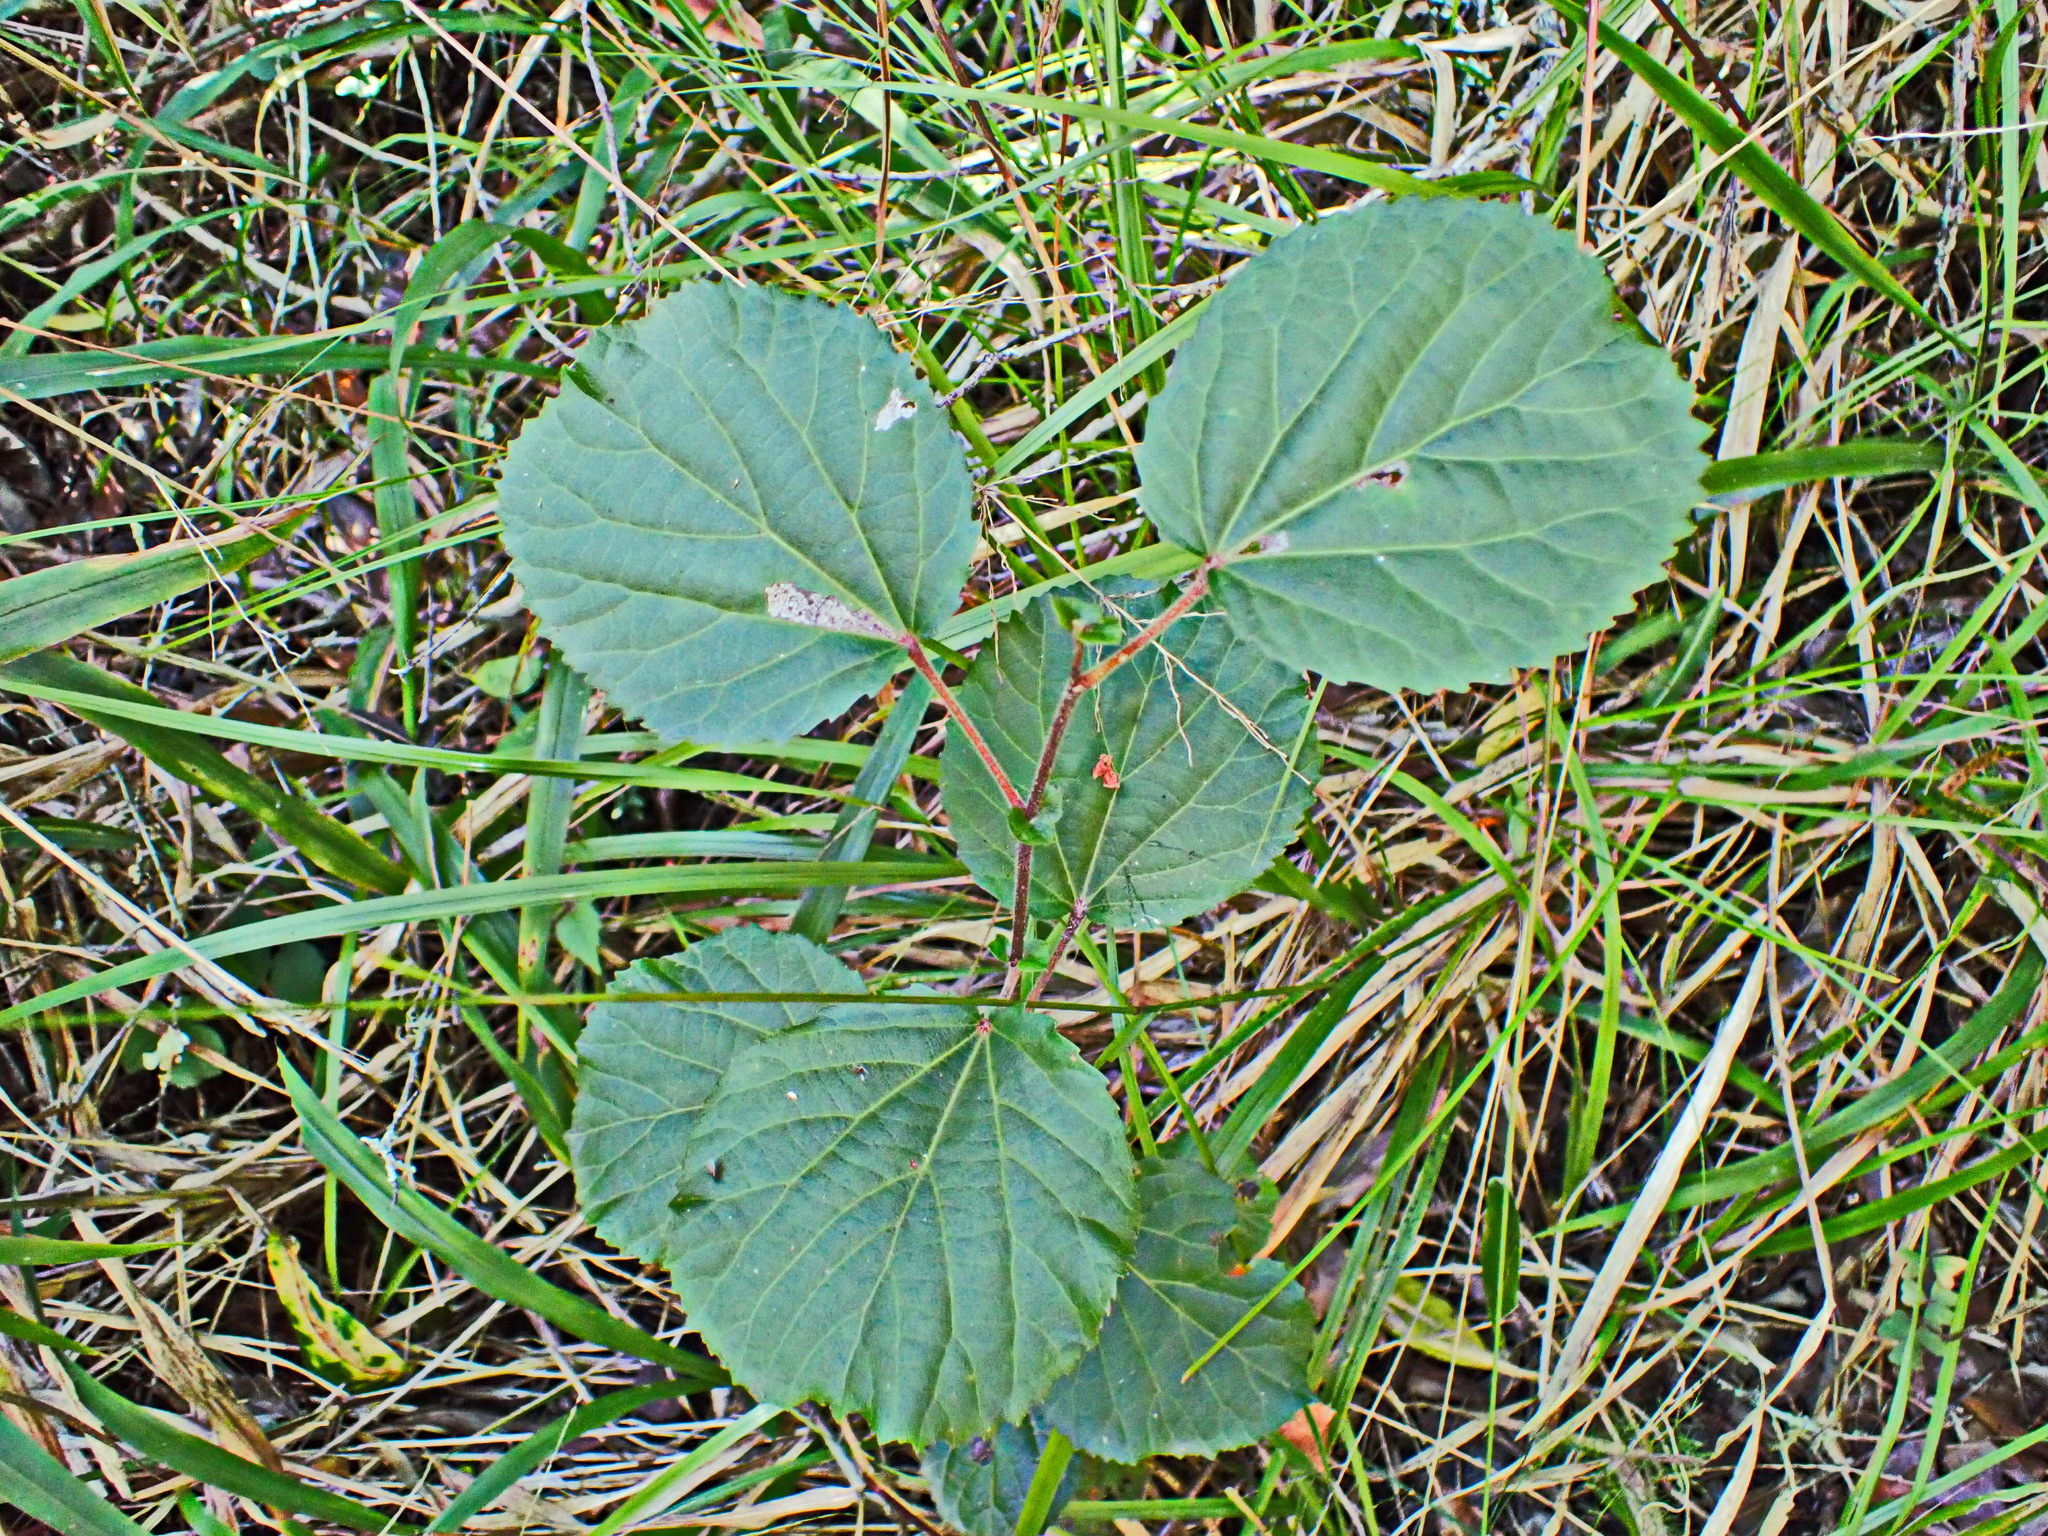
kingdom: Plantae
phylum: Tracheophyta
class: Magnoliopsida
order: Malpighiales
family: Salicaceae
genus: Trimeria
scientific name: Trimeria grandifolia
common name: Wild mulberry
